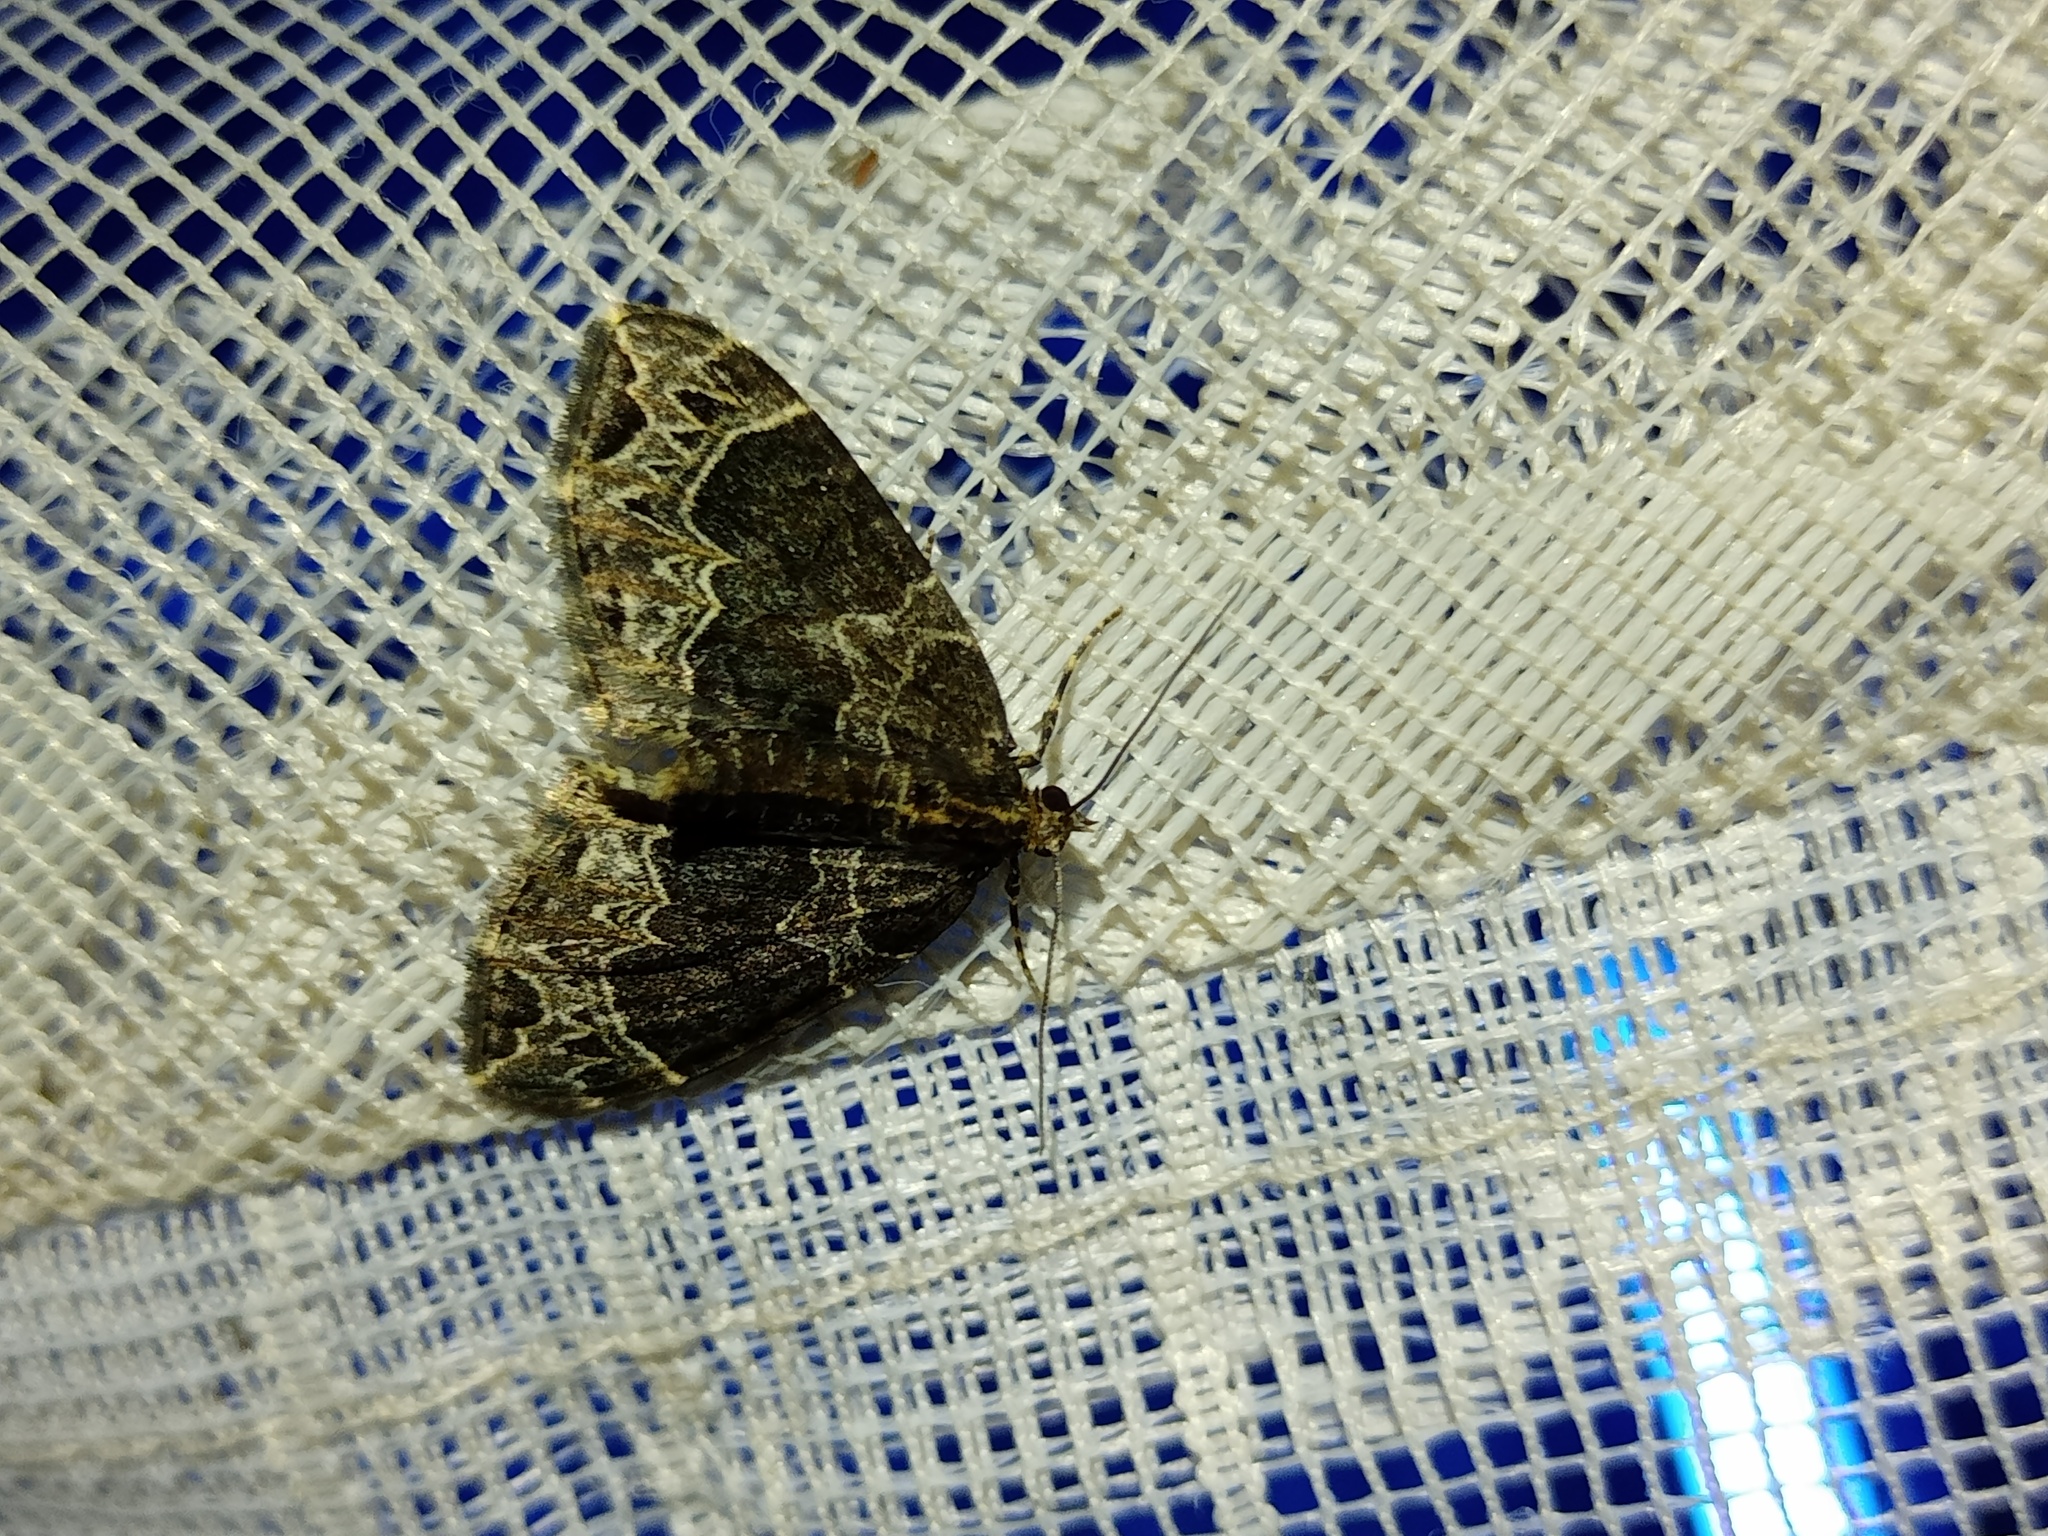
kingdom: Animalia
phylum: Arthropoda
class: Insecta
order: Lepidoptera
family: Geometridae
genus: Ecliptopera
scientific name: Ecliptopera silaceata
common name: Small phoenix
